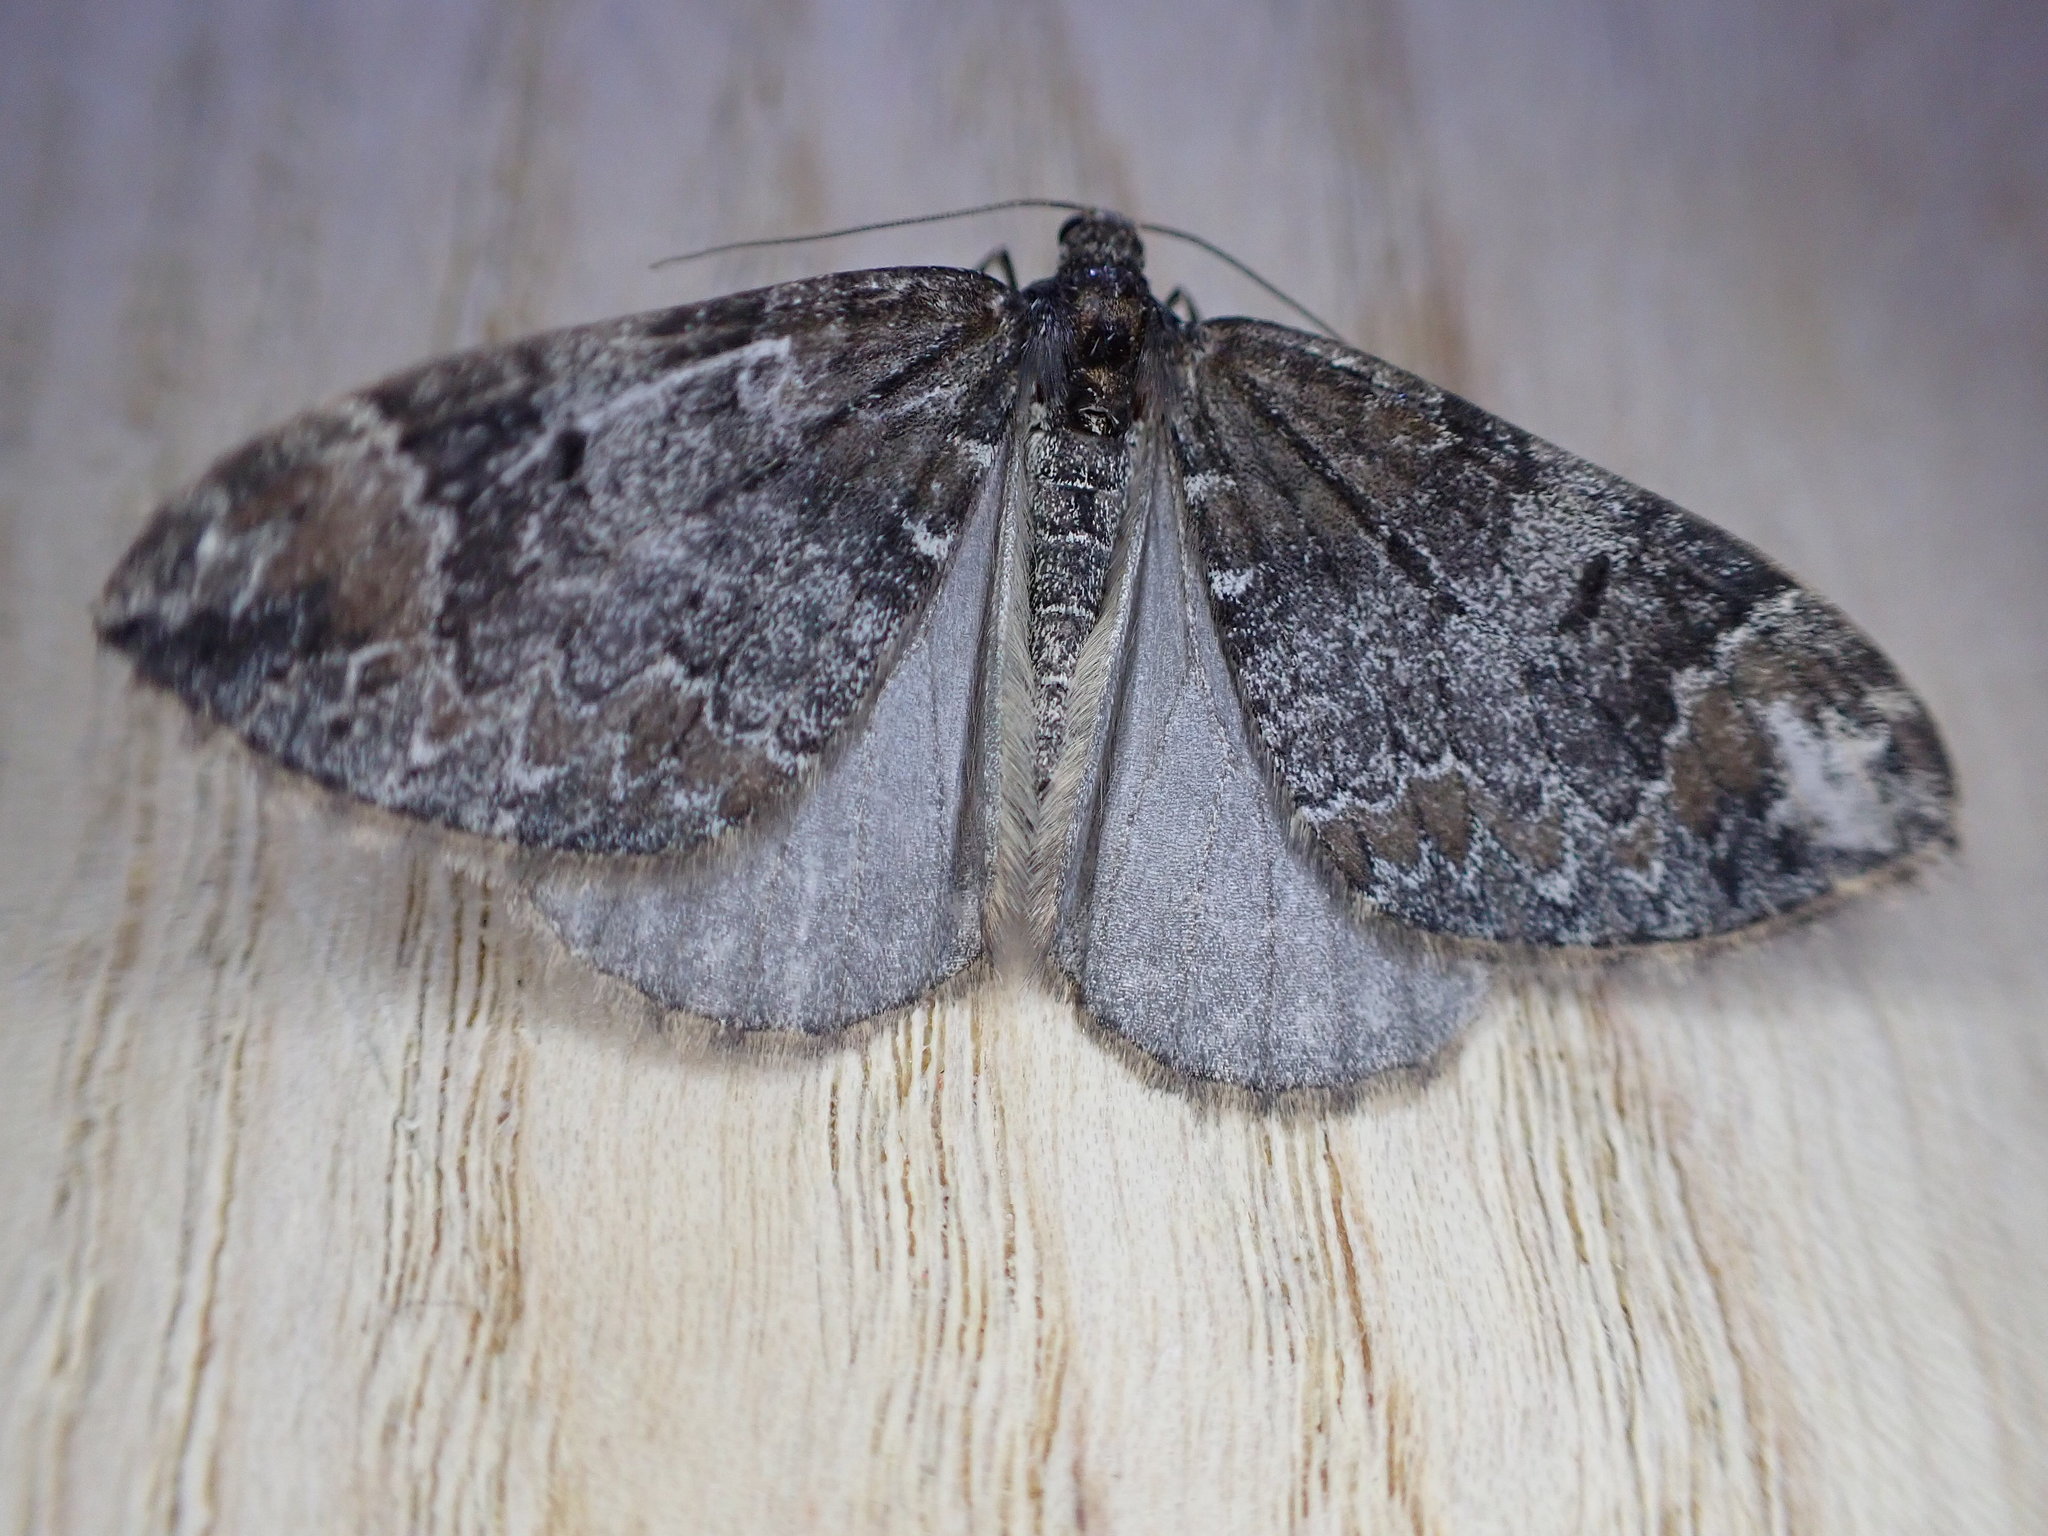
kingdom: Animalia
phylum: Arthropoda
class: Insecta
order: Lepidoptera
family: Geometridae
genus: Dysstroma
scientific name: Dysstroma truncata
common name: Common marbled carpet
